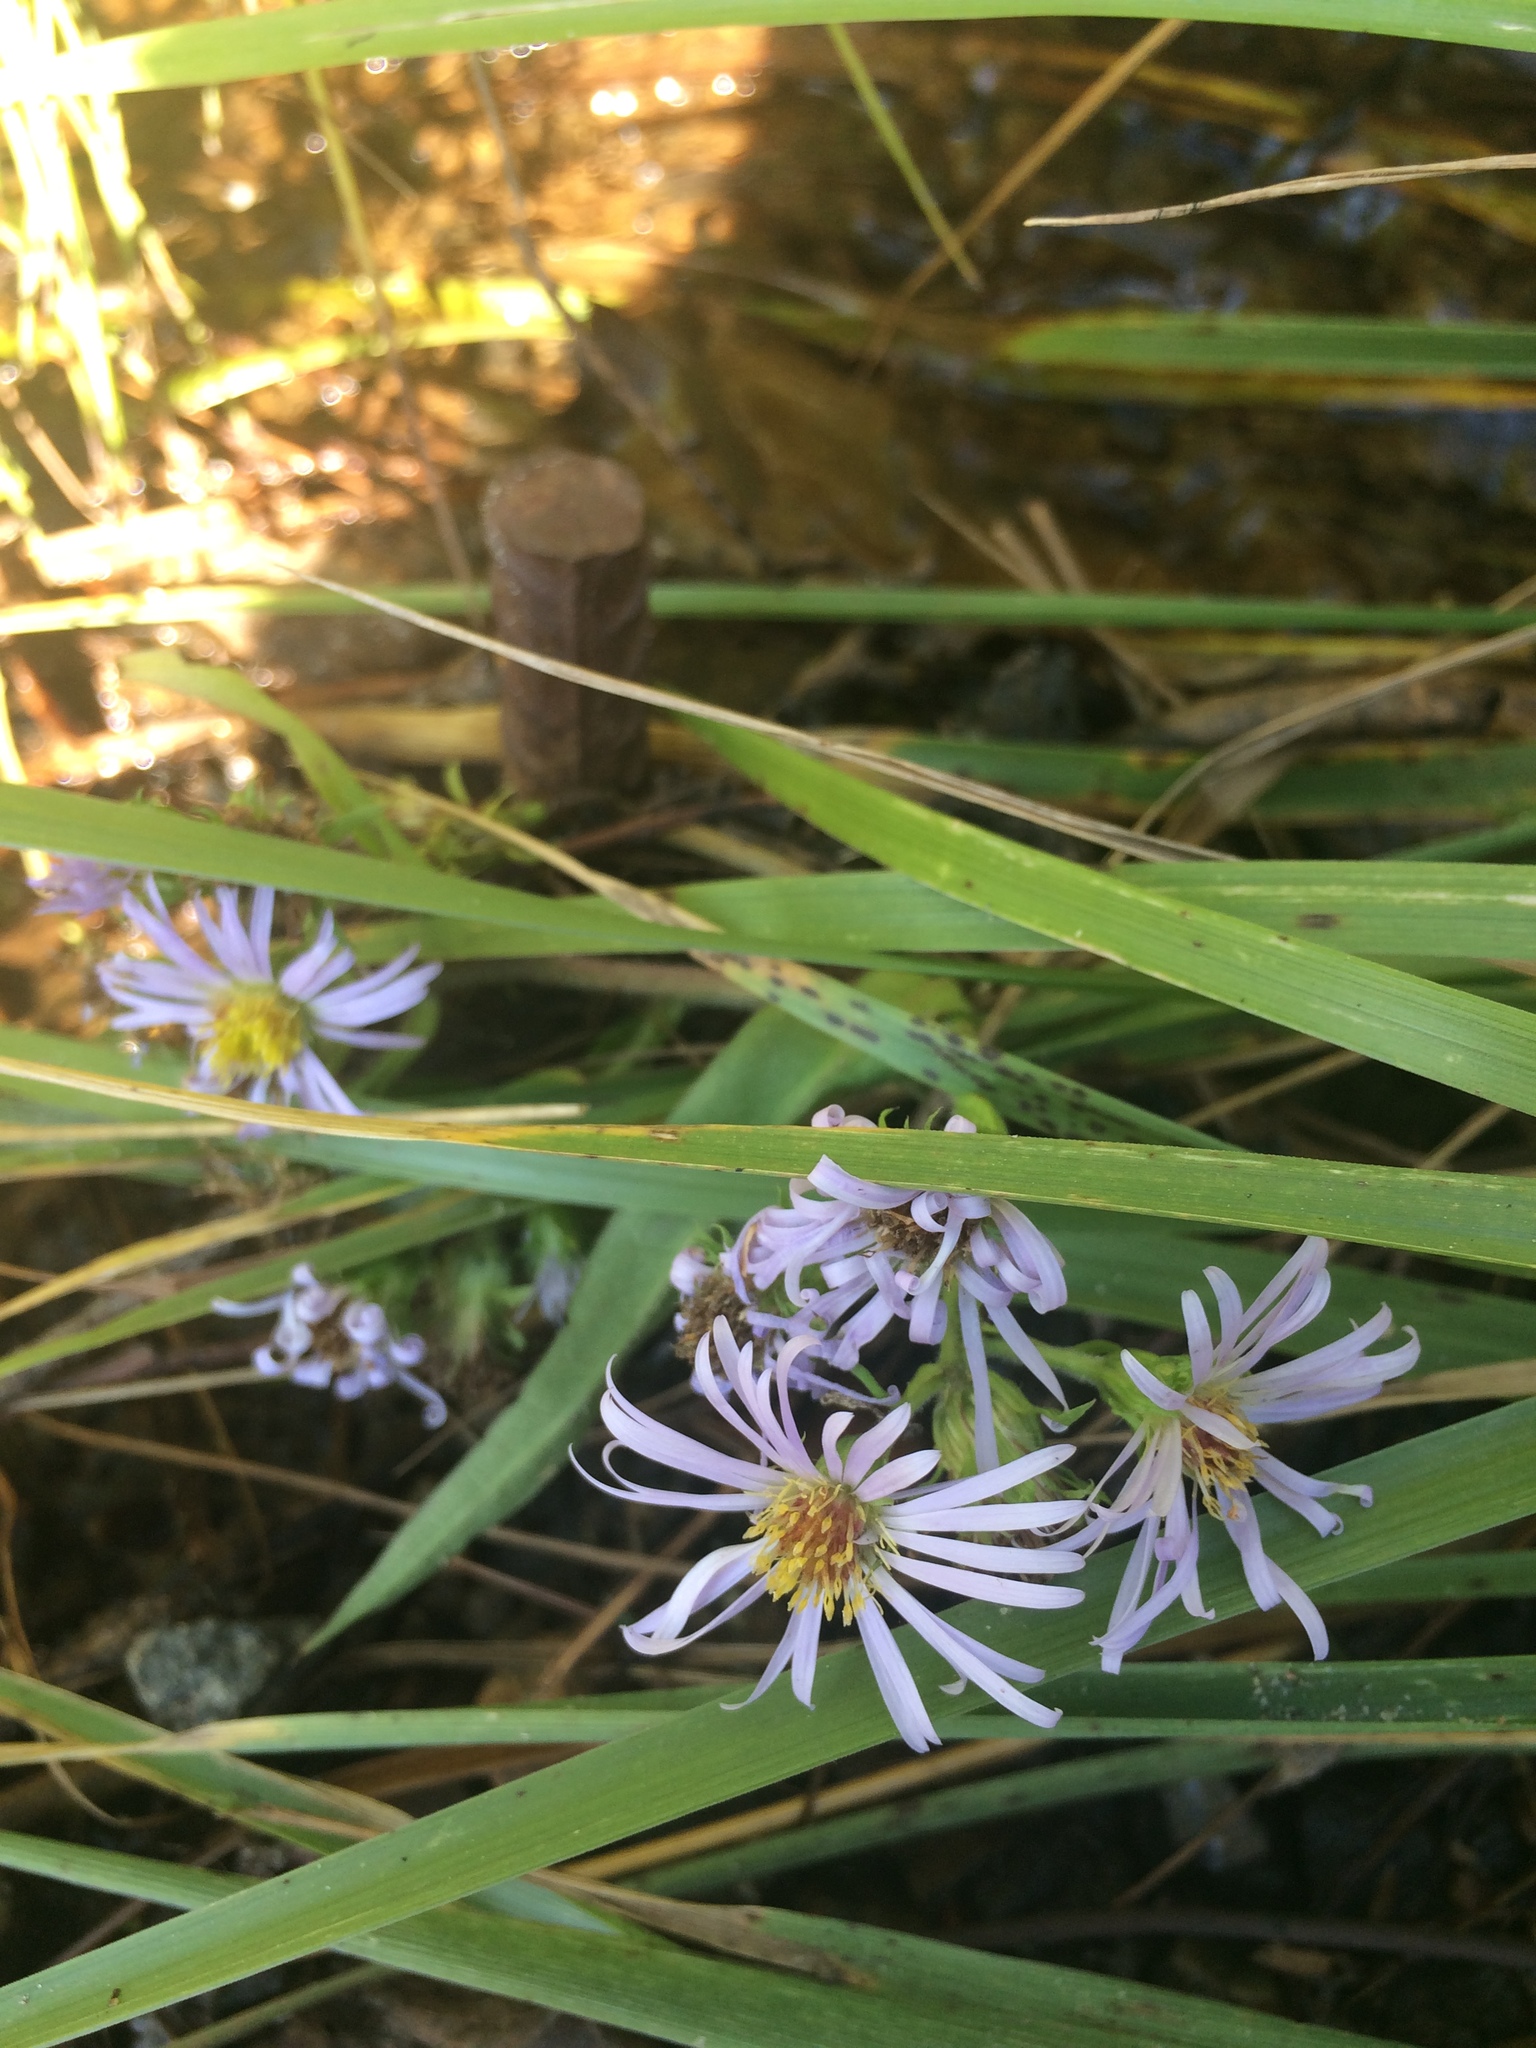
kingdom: Plantae
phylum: Tracheophyta
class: Magnoliopsida
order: Asterales
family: Asteraceae
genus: Symphyotrichum
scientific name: Symphyotrichum puniceum
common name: Bog aster
